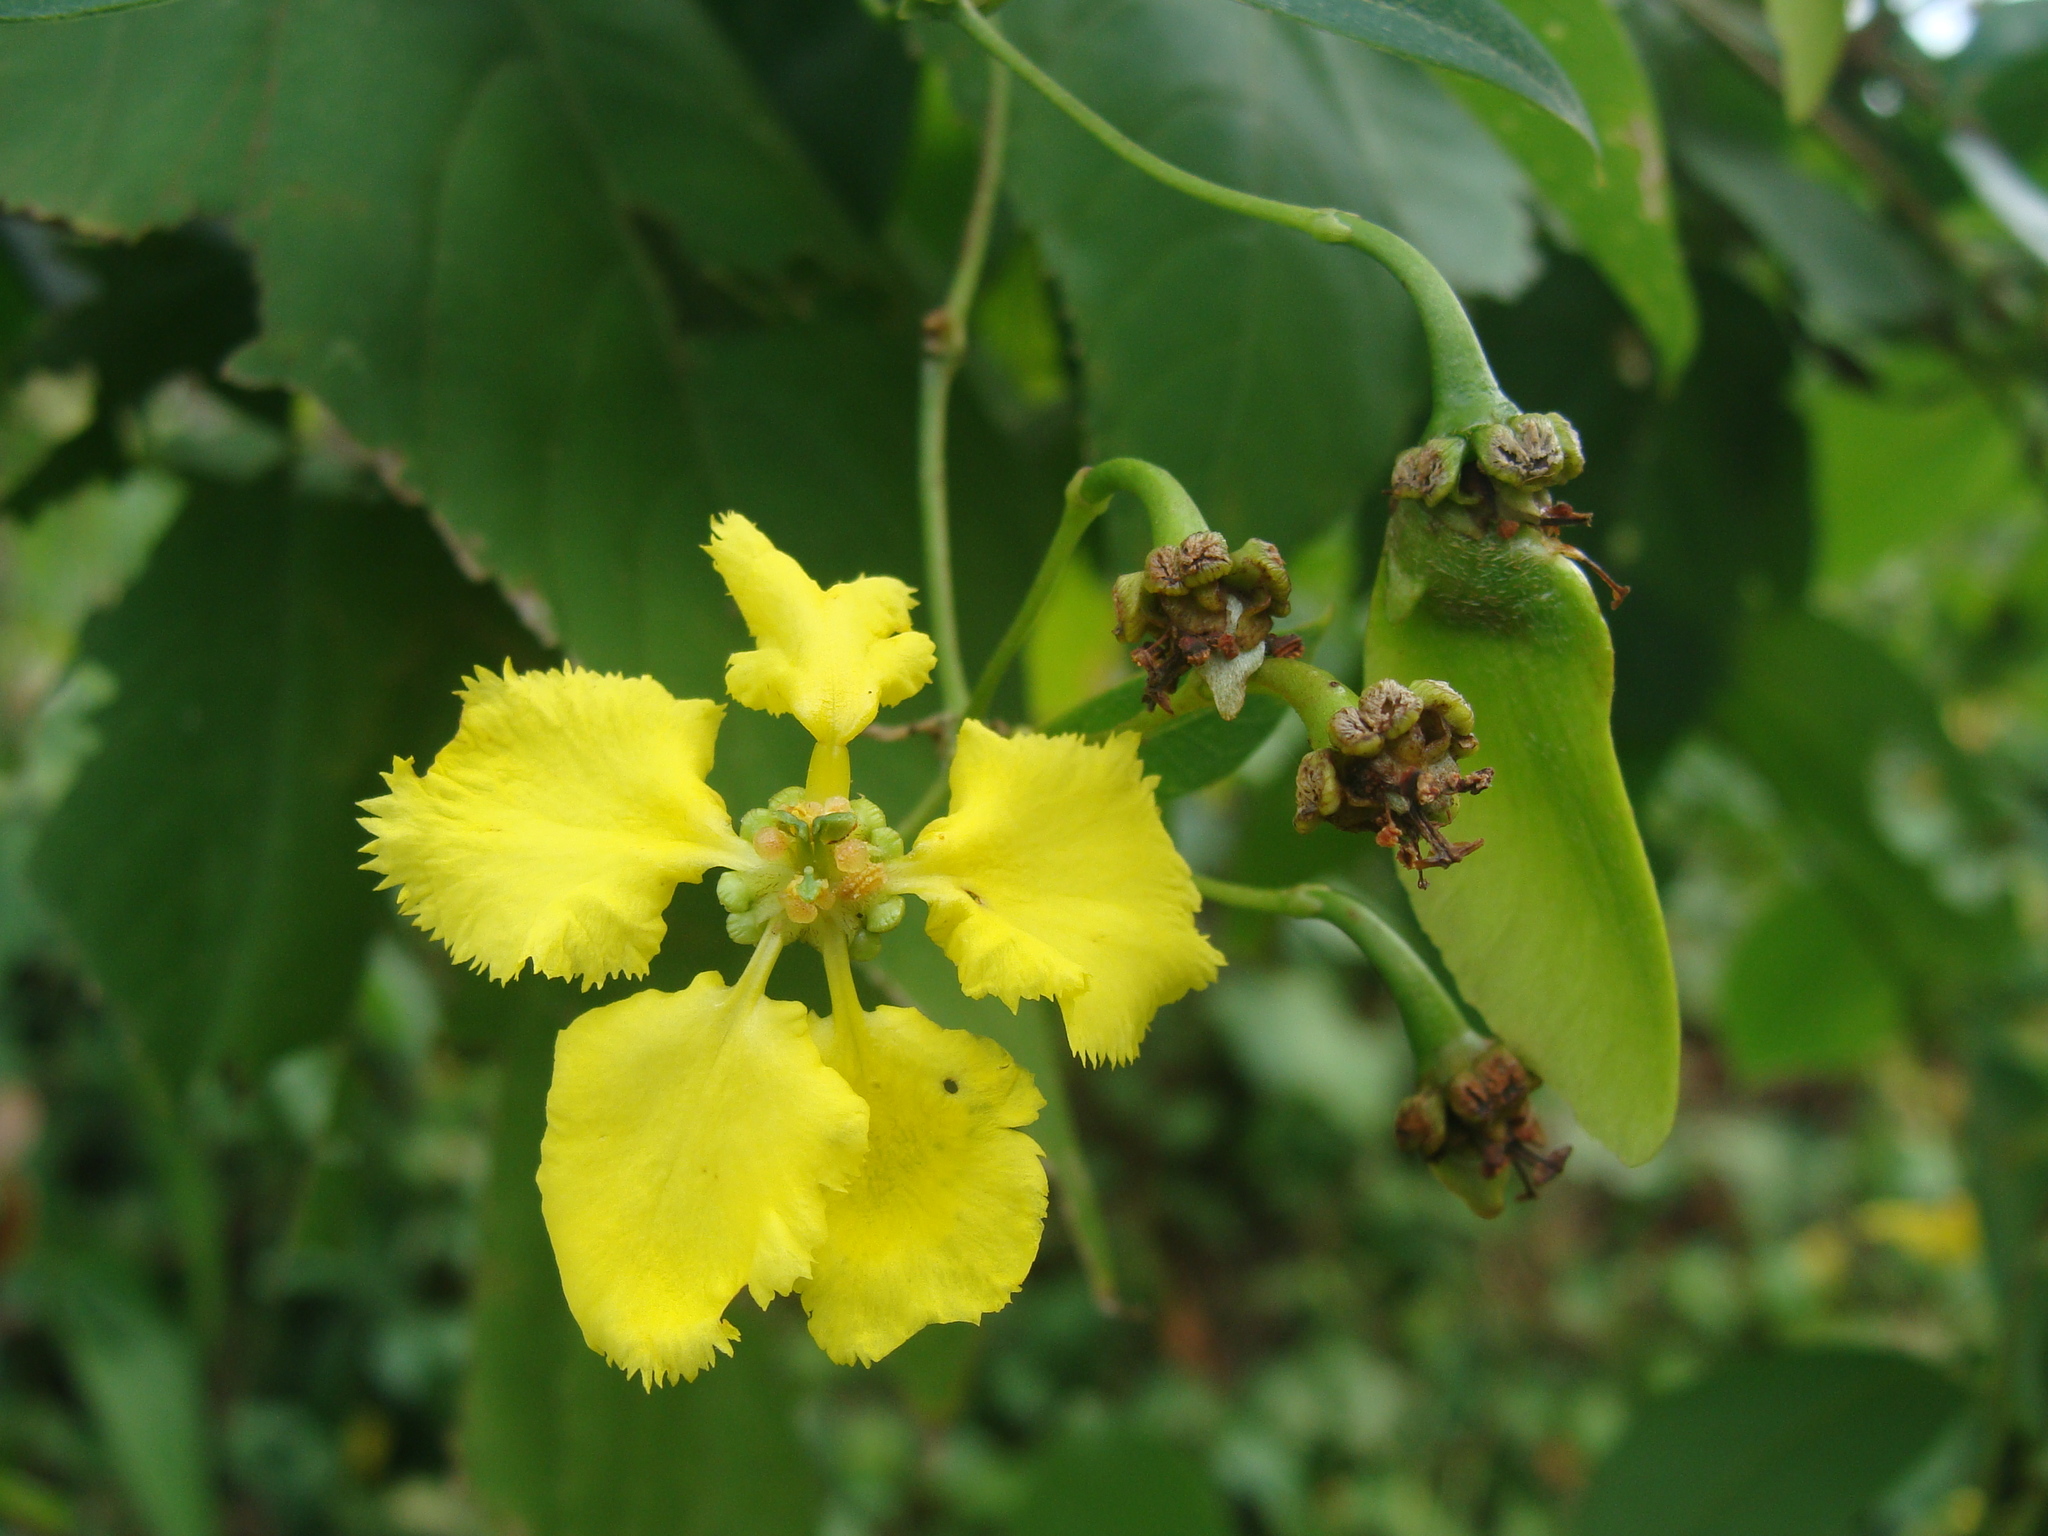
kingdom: Plantae
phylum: Tracheophyta
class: Magnoliopsida
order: Malpighiales
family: Malpighiaceae
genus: Stigmaphyllon
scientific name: Stigmaphyllon ellipticum
